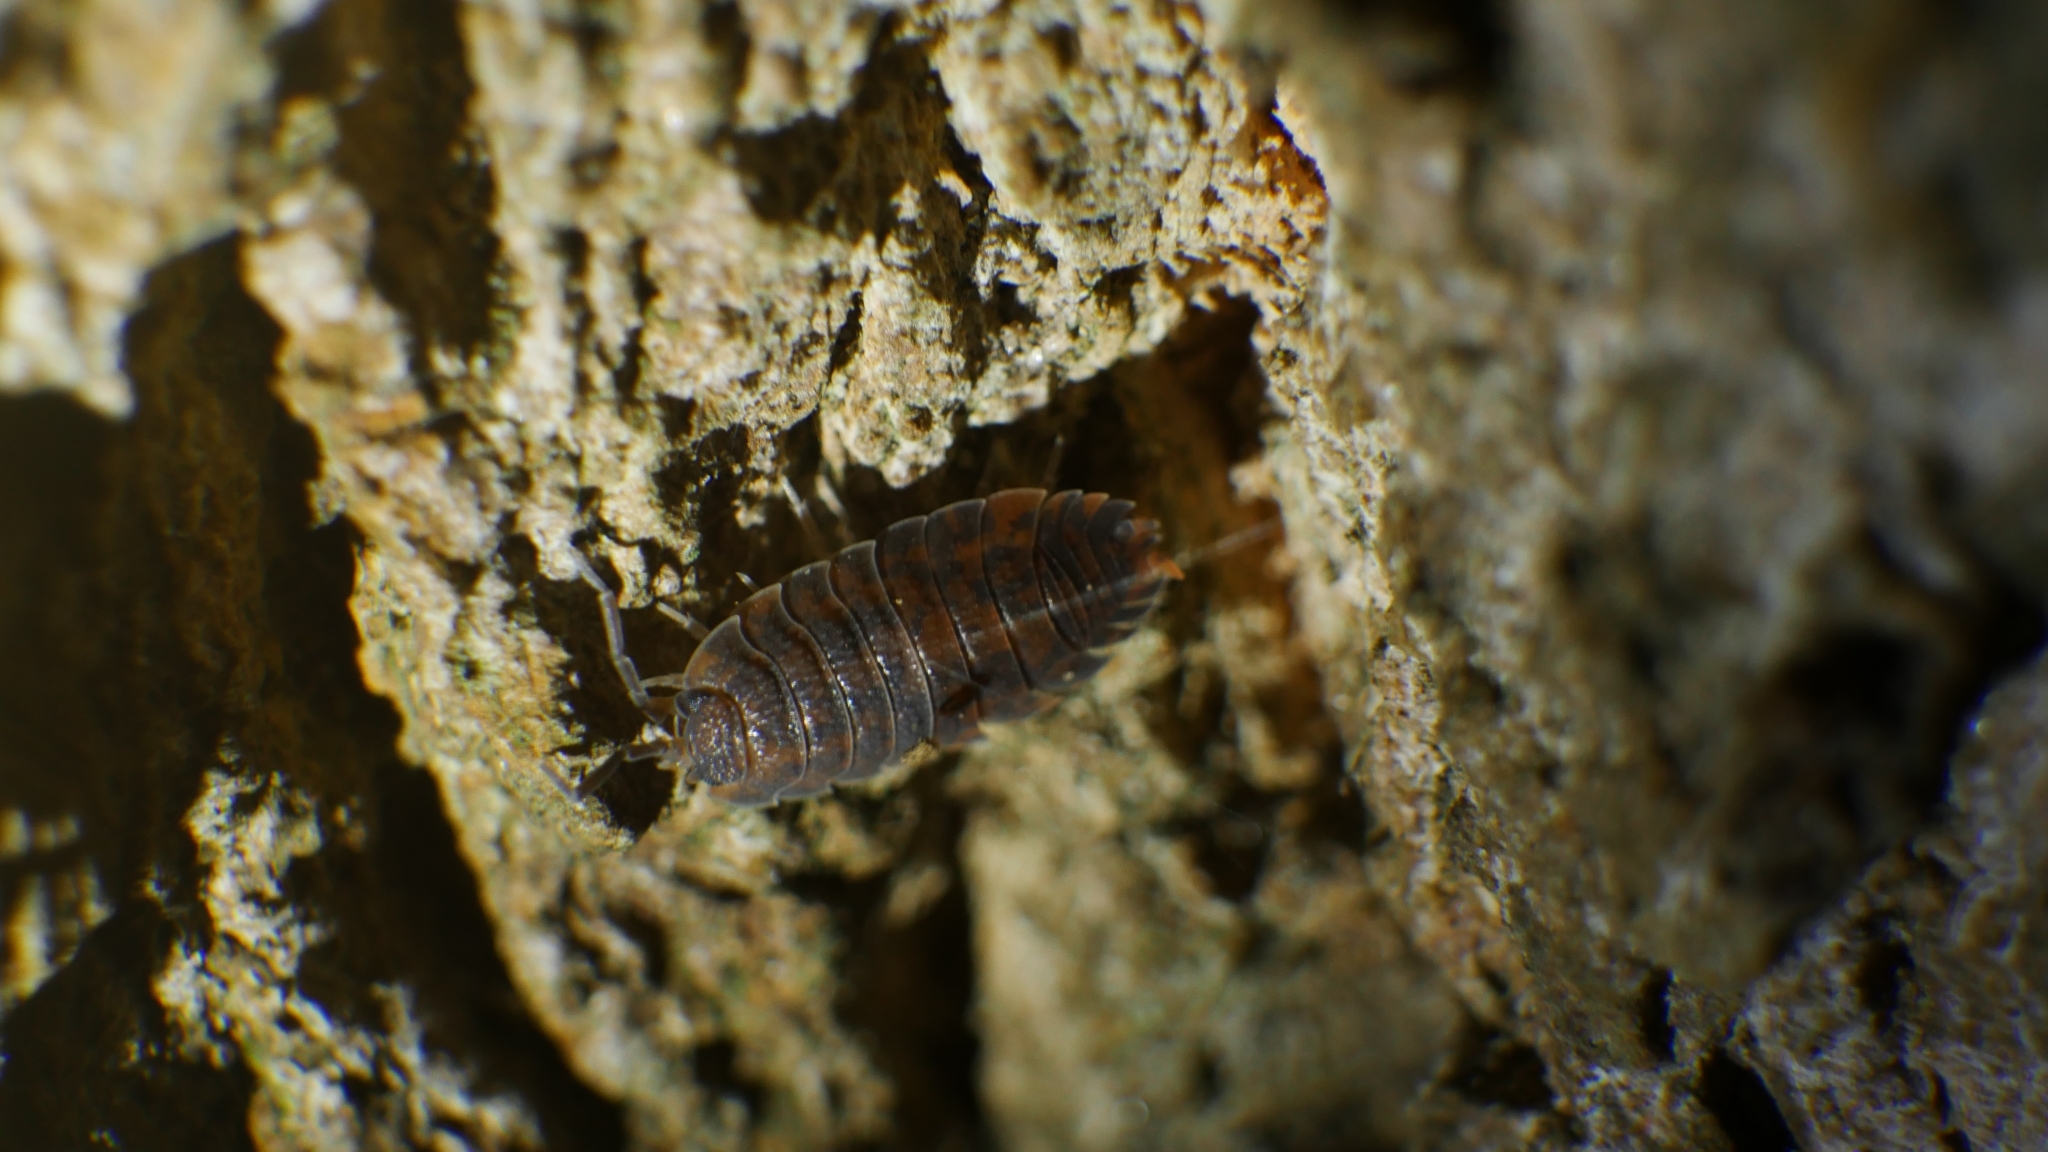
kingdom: Animalia
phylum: Arthropoda
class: Malacostraca
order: Isopoda
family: Porcellionidae
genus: Porcellio
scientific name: Porcellio scaber
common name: Common rough woodlouse
